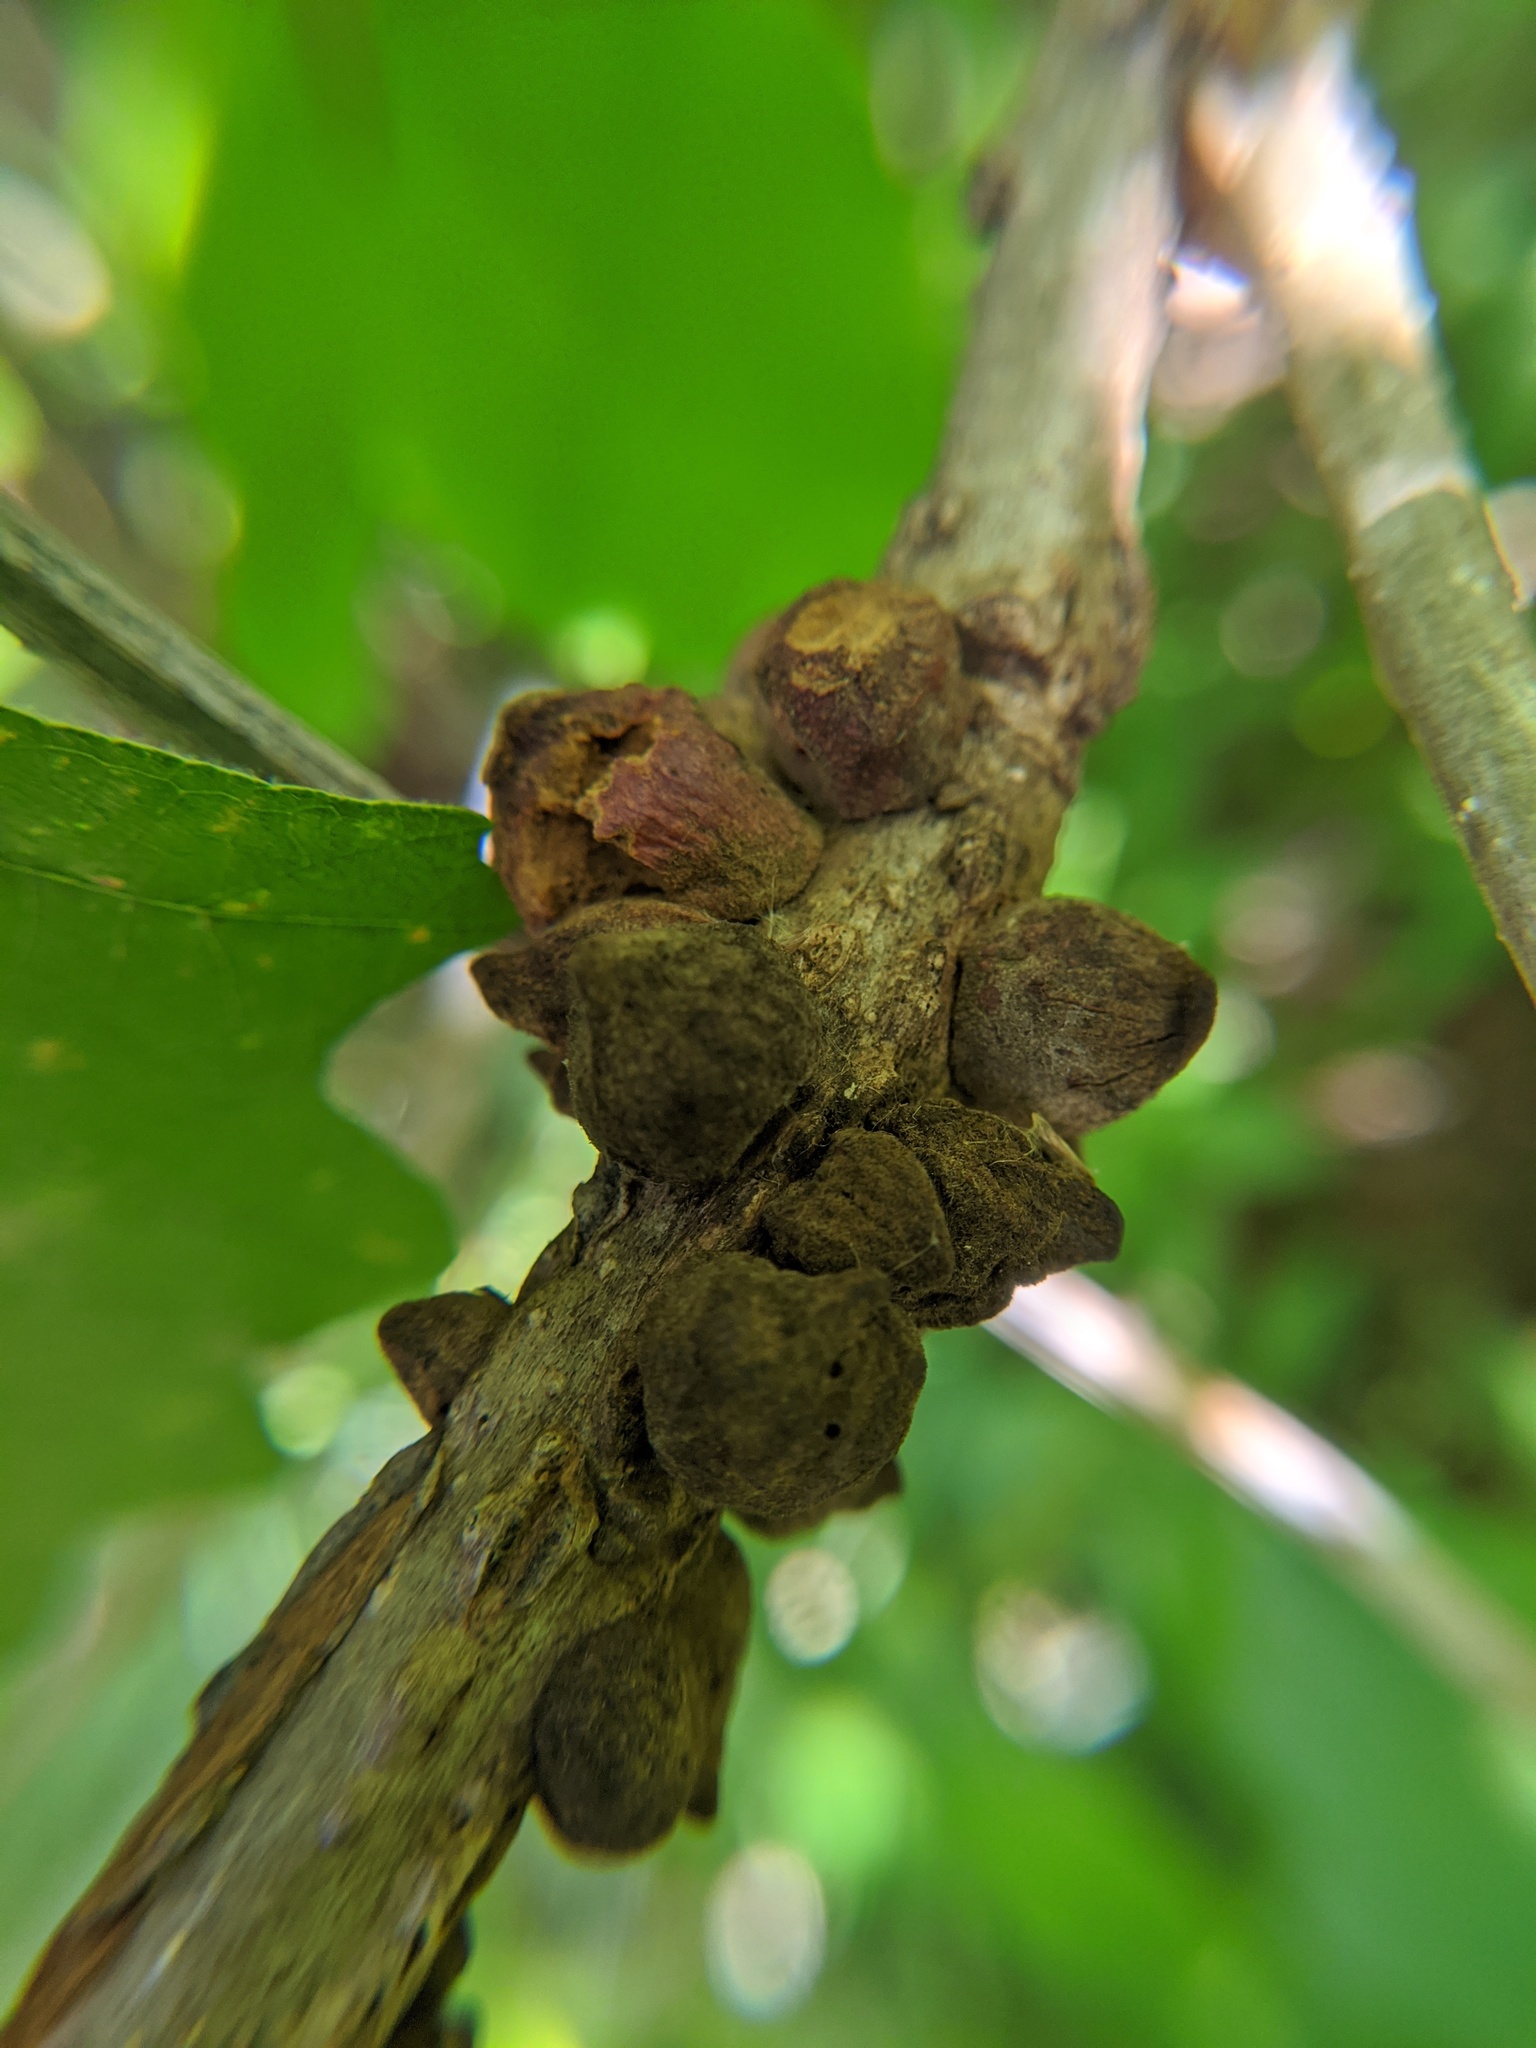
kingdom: Animalia
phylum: Arthropoda
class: Insecta
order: Hymenoptera
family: Cynipidae
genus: Disholcaspis
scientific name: Disholcaspis
